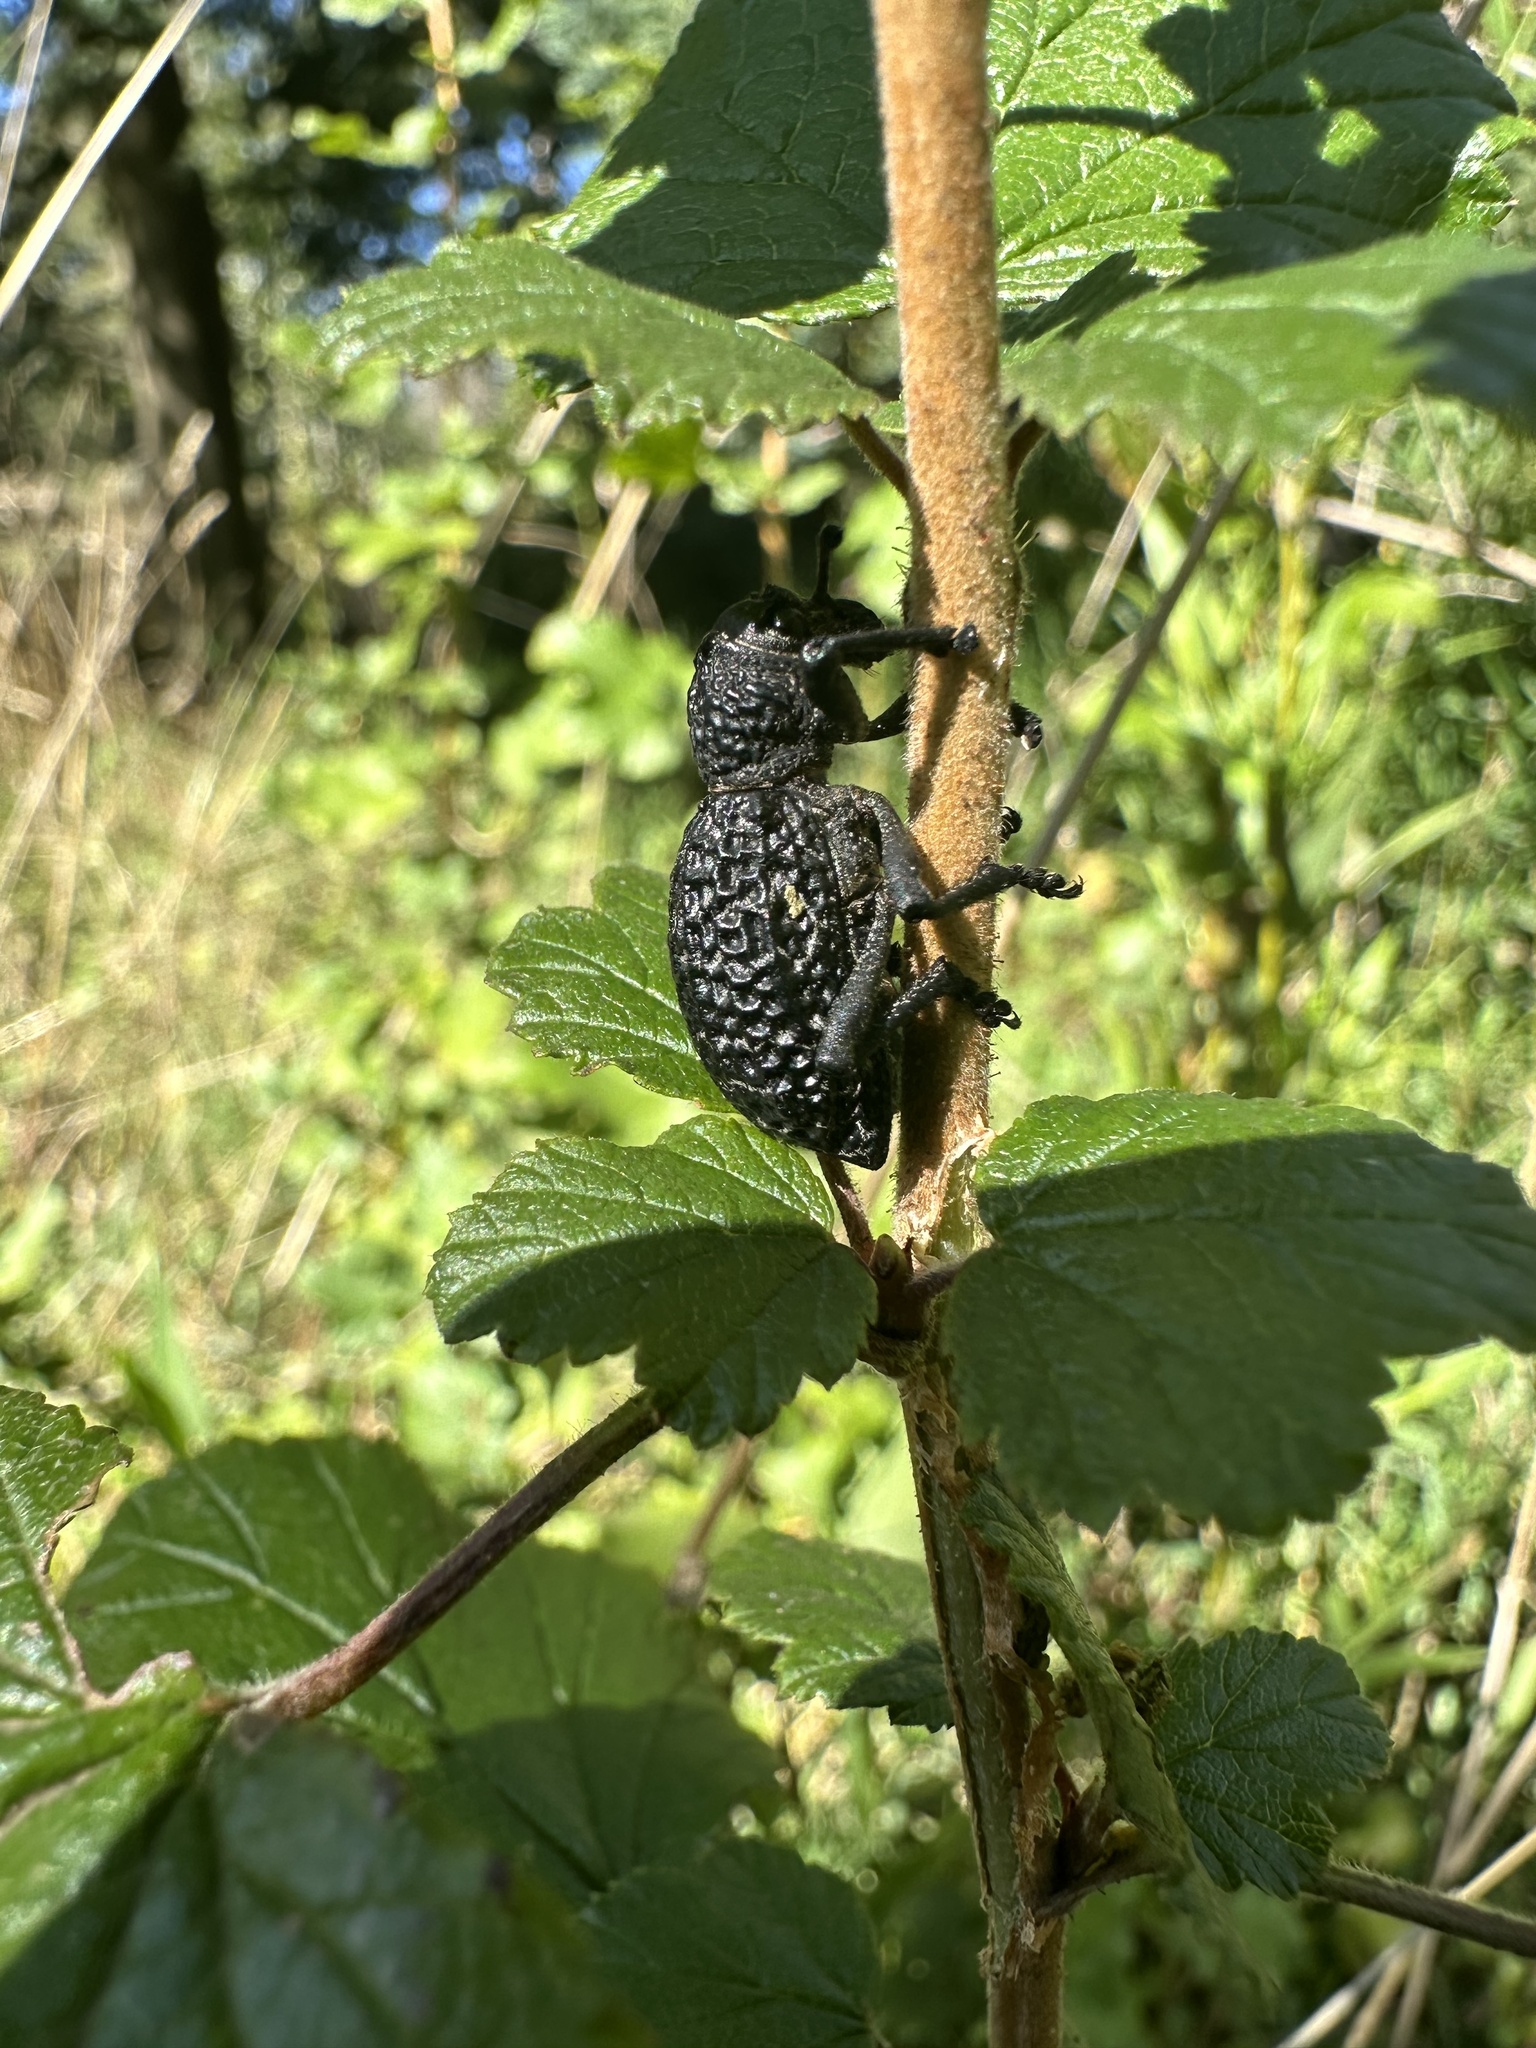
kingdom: Animalia
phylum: Arthropoda
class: Insecta
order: Coleoptera
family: Curculionidae
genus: Aegorhinus
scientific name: Aegorhinus superciliosus
